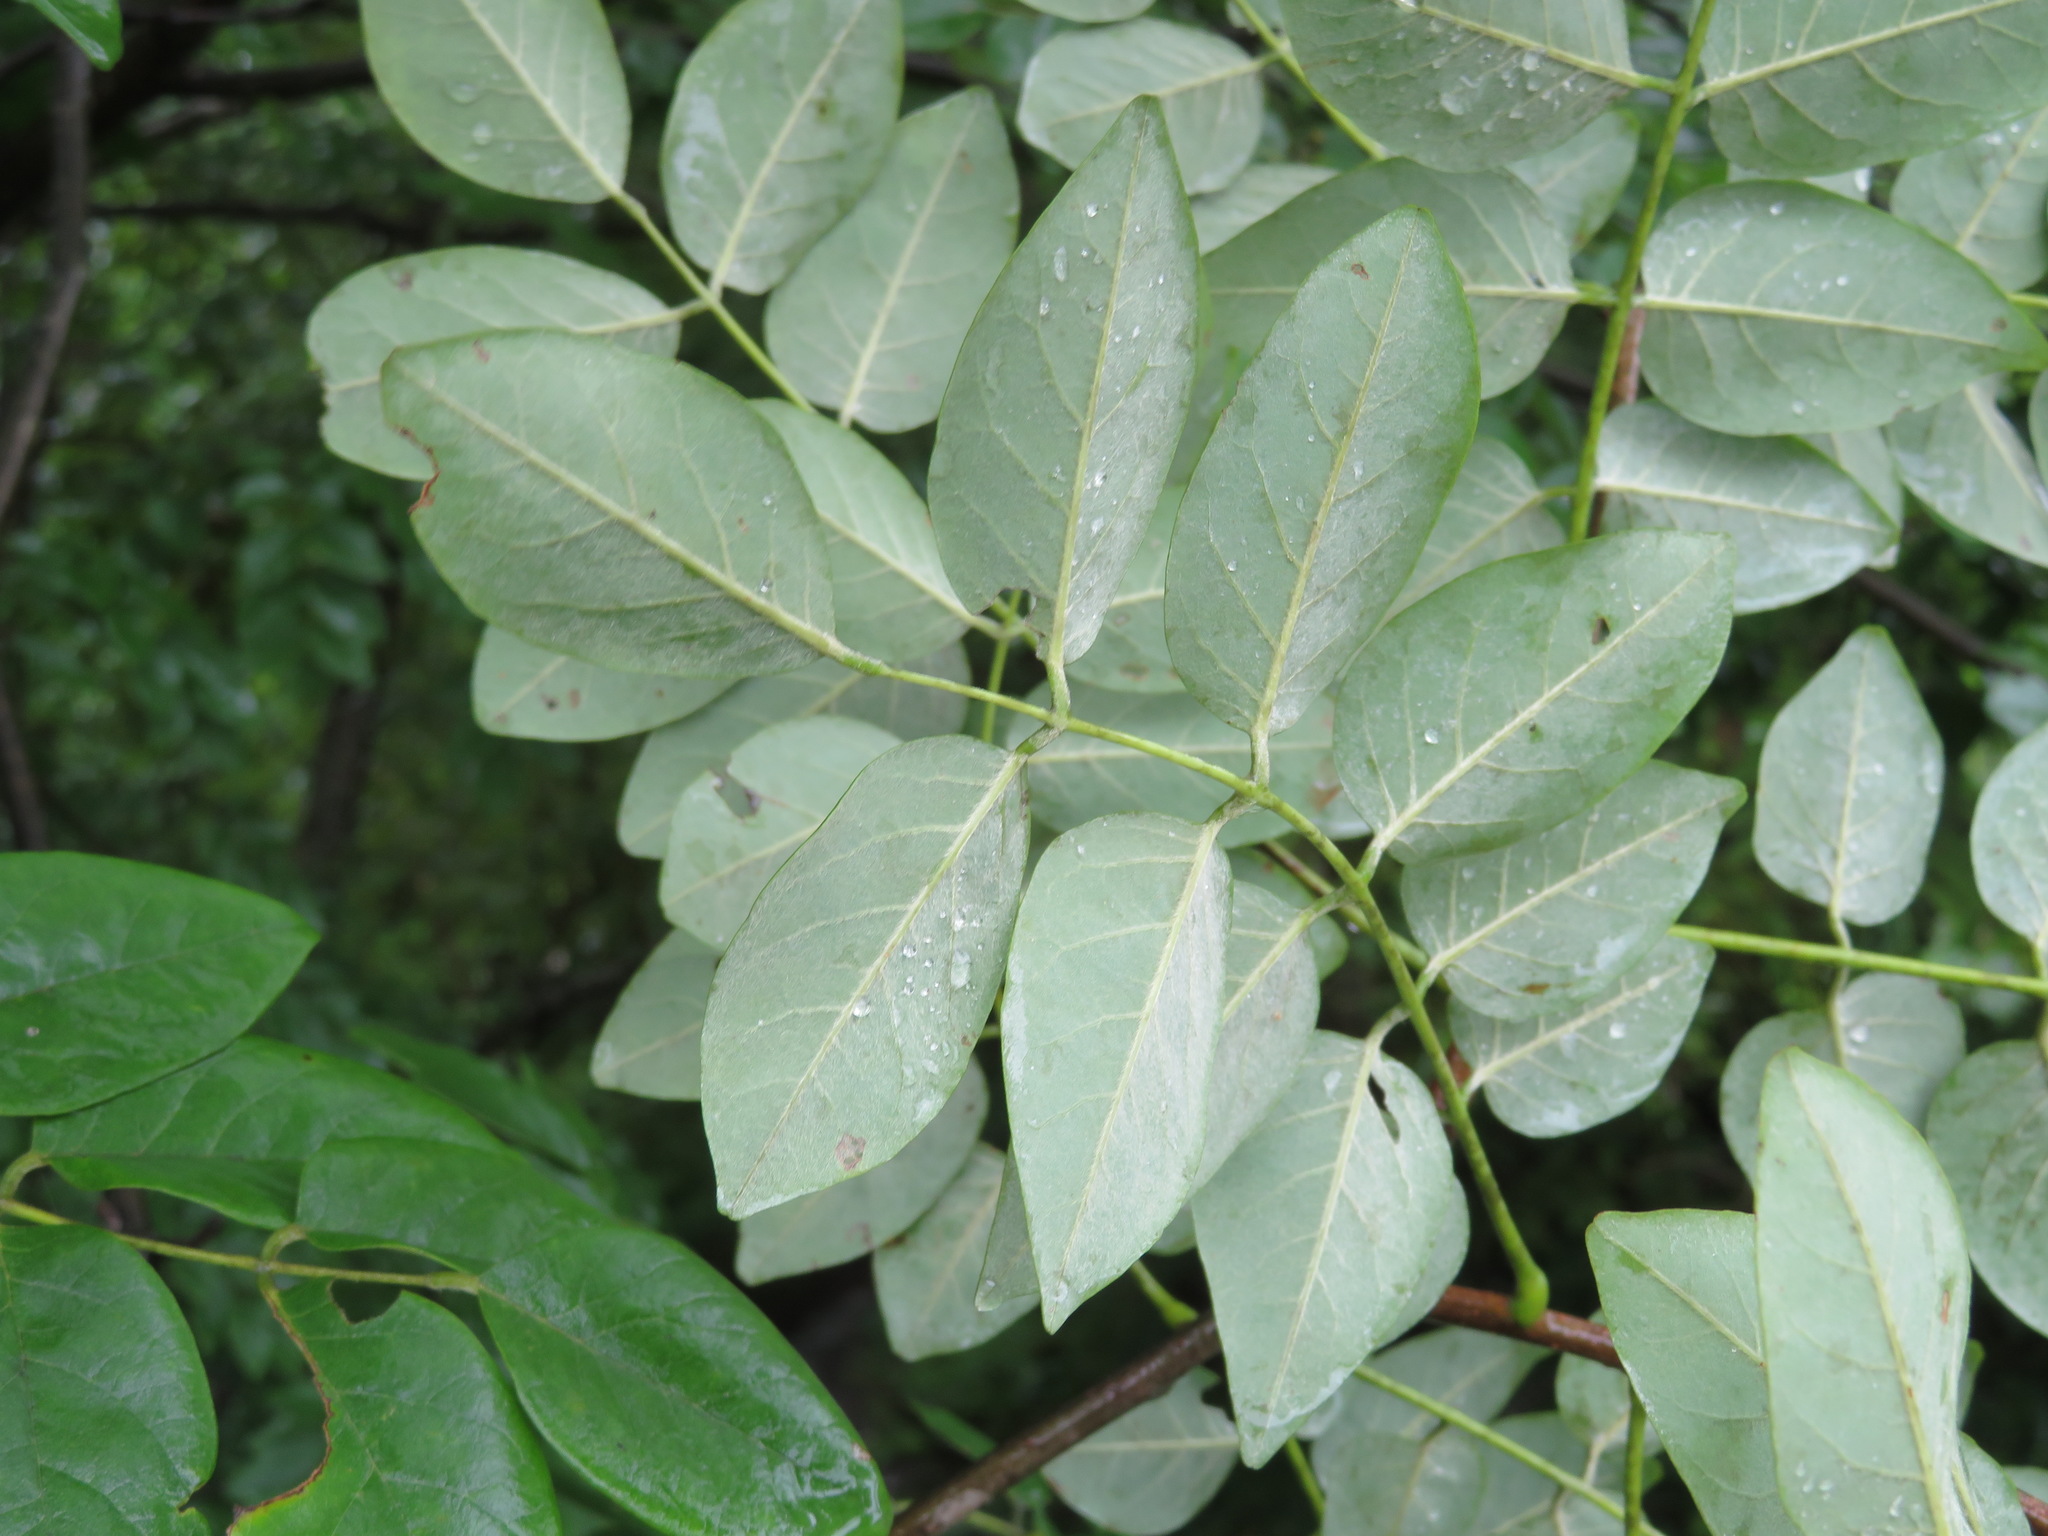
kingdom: Plantae
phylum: Tracheophyta
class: Magnoliopsida
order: Fabales
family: Fabaceae
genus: Maackia
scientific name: Maackia amurensis
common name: Amur maackia
